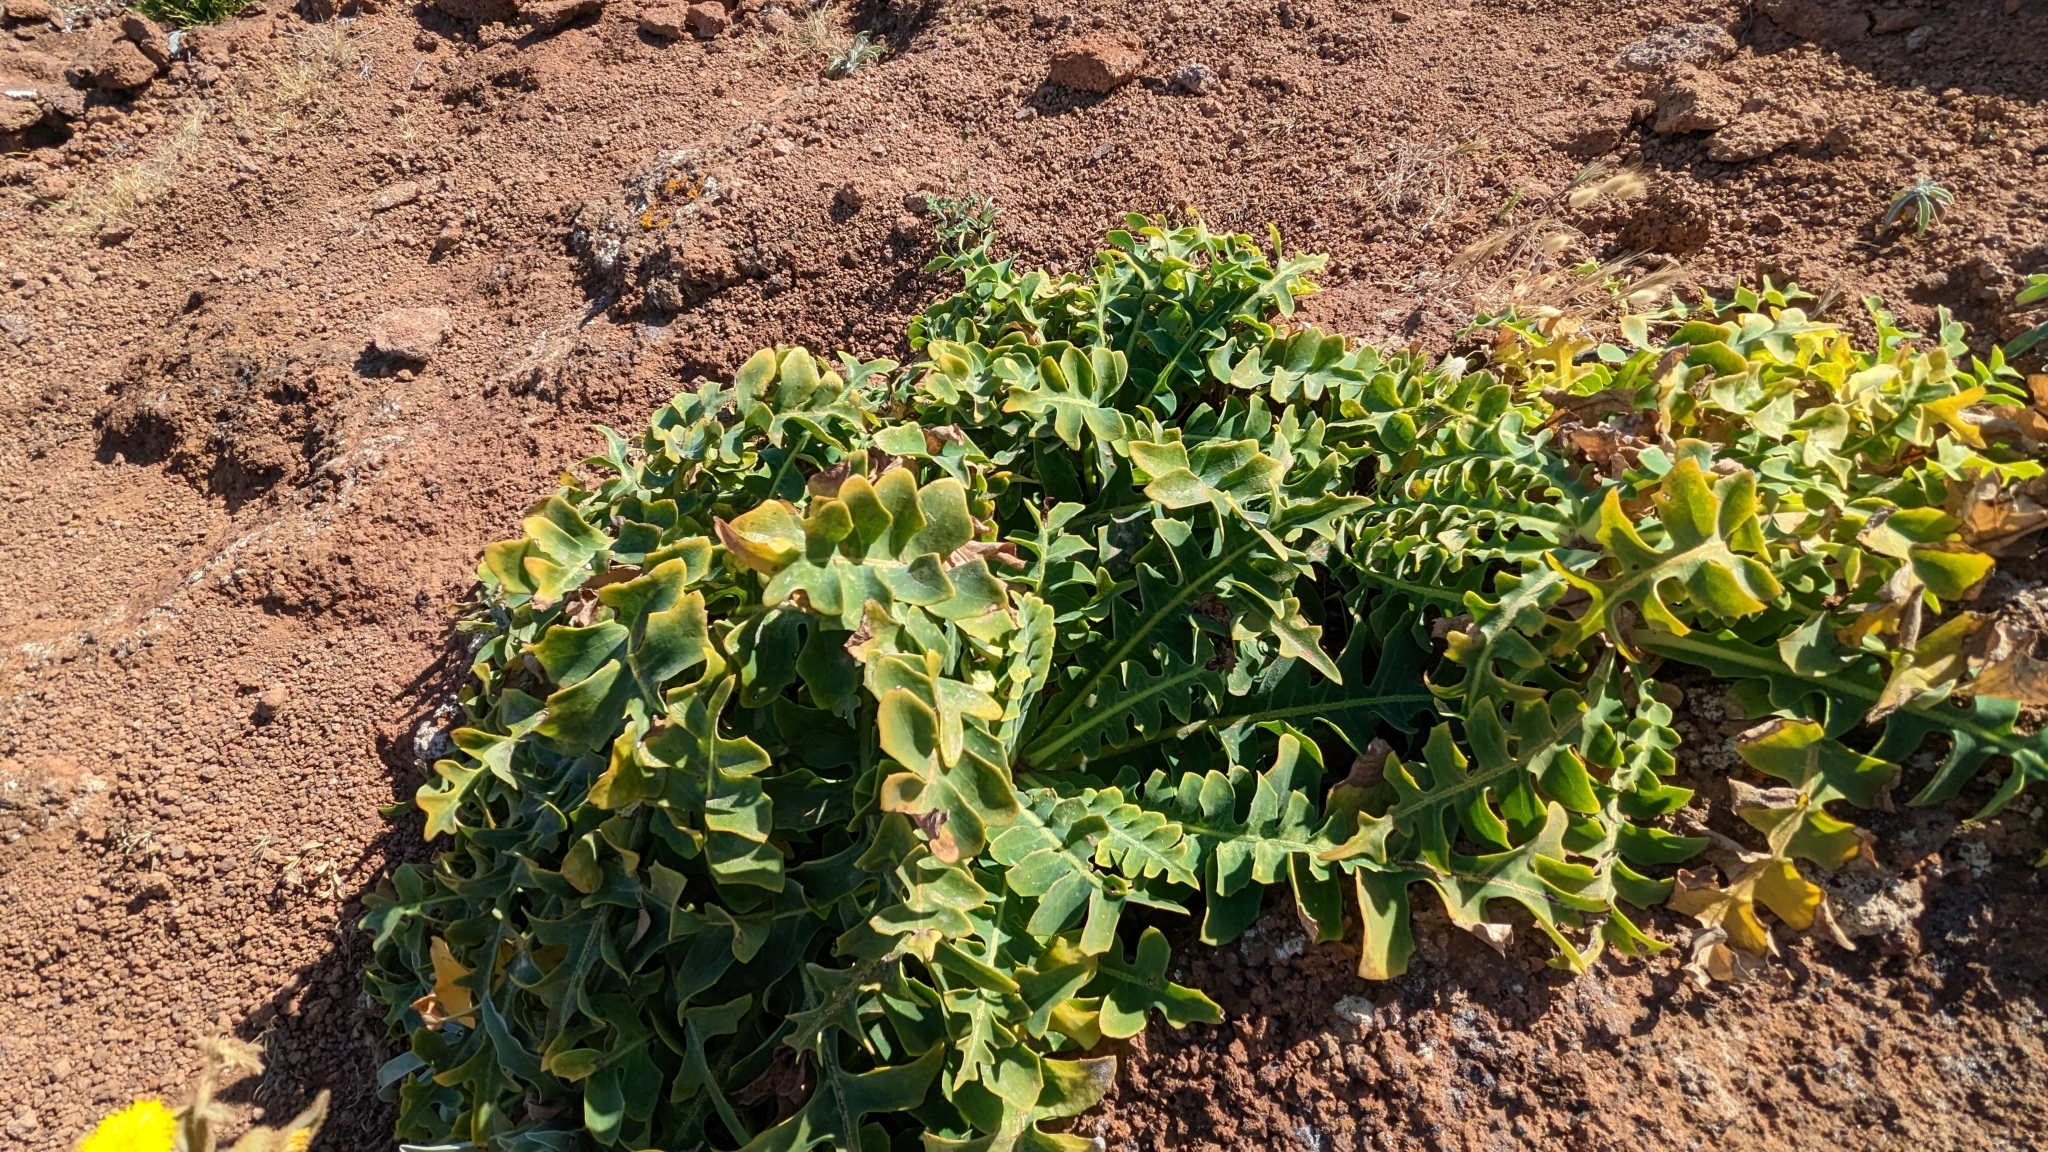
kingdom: Plantae
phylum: Tracheophyta
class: Magnoliopsida
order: Asterales
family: Asteraceae
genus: Sonchus
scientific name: Sonchus latifolius
